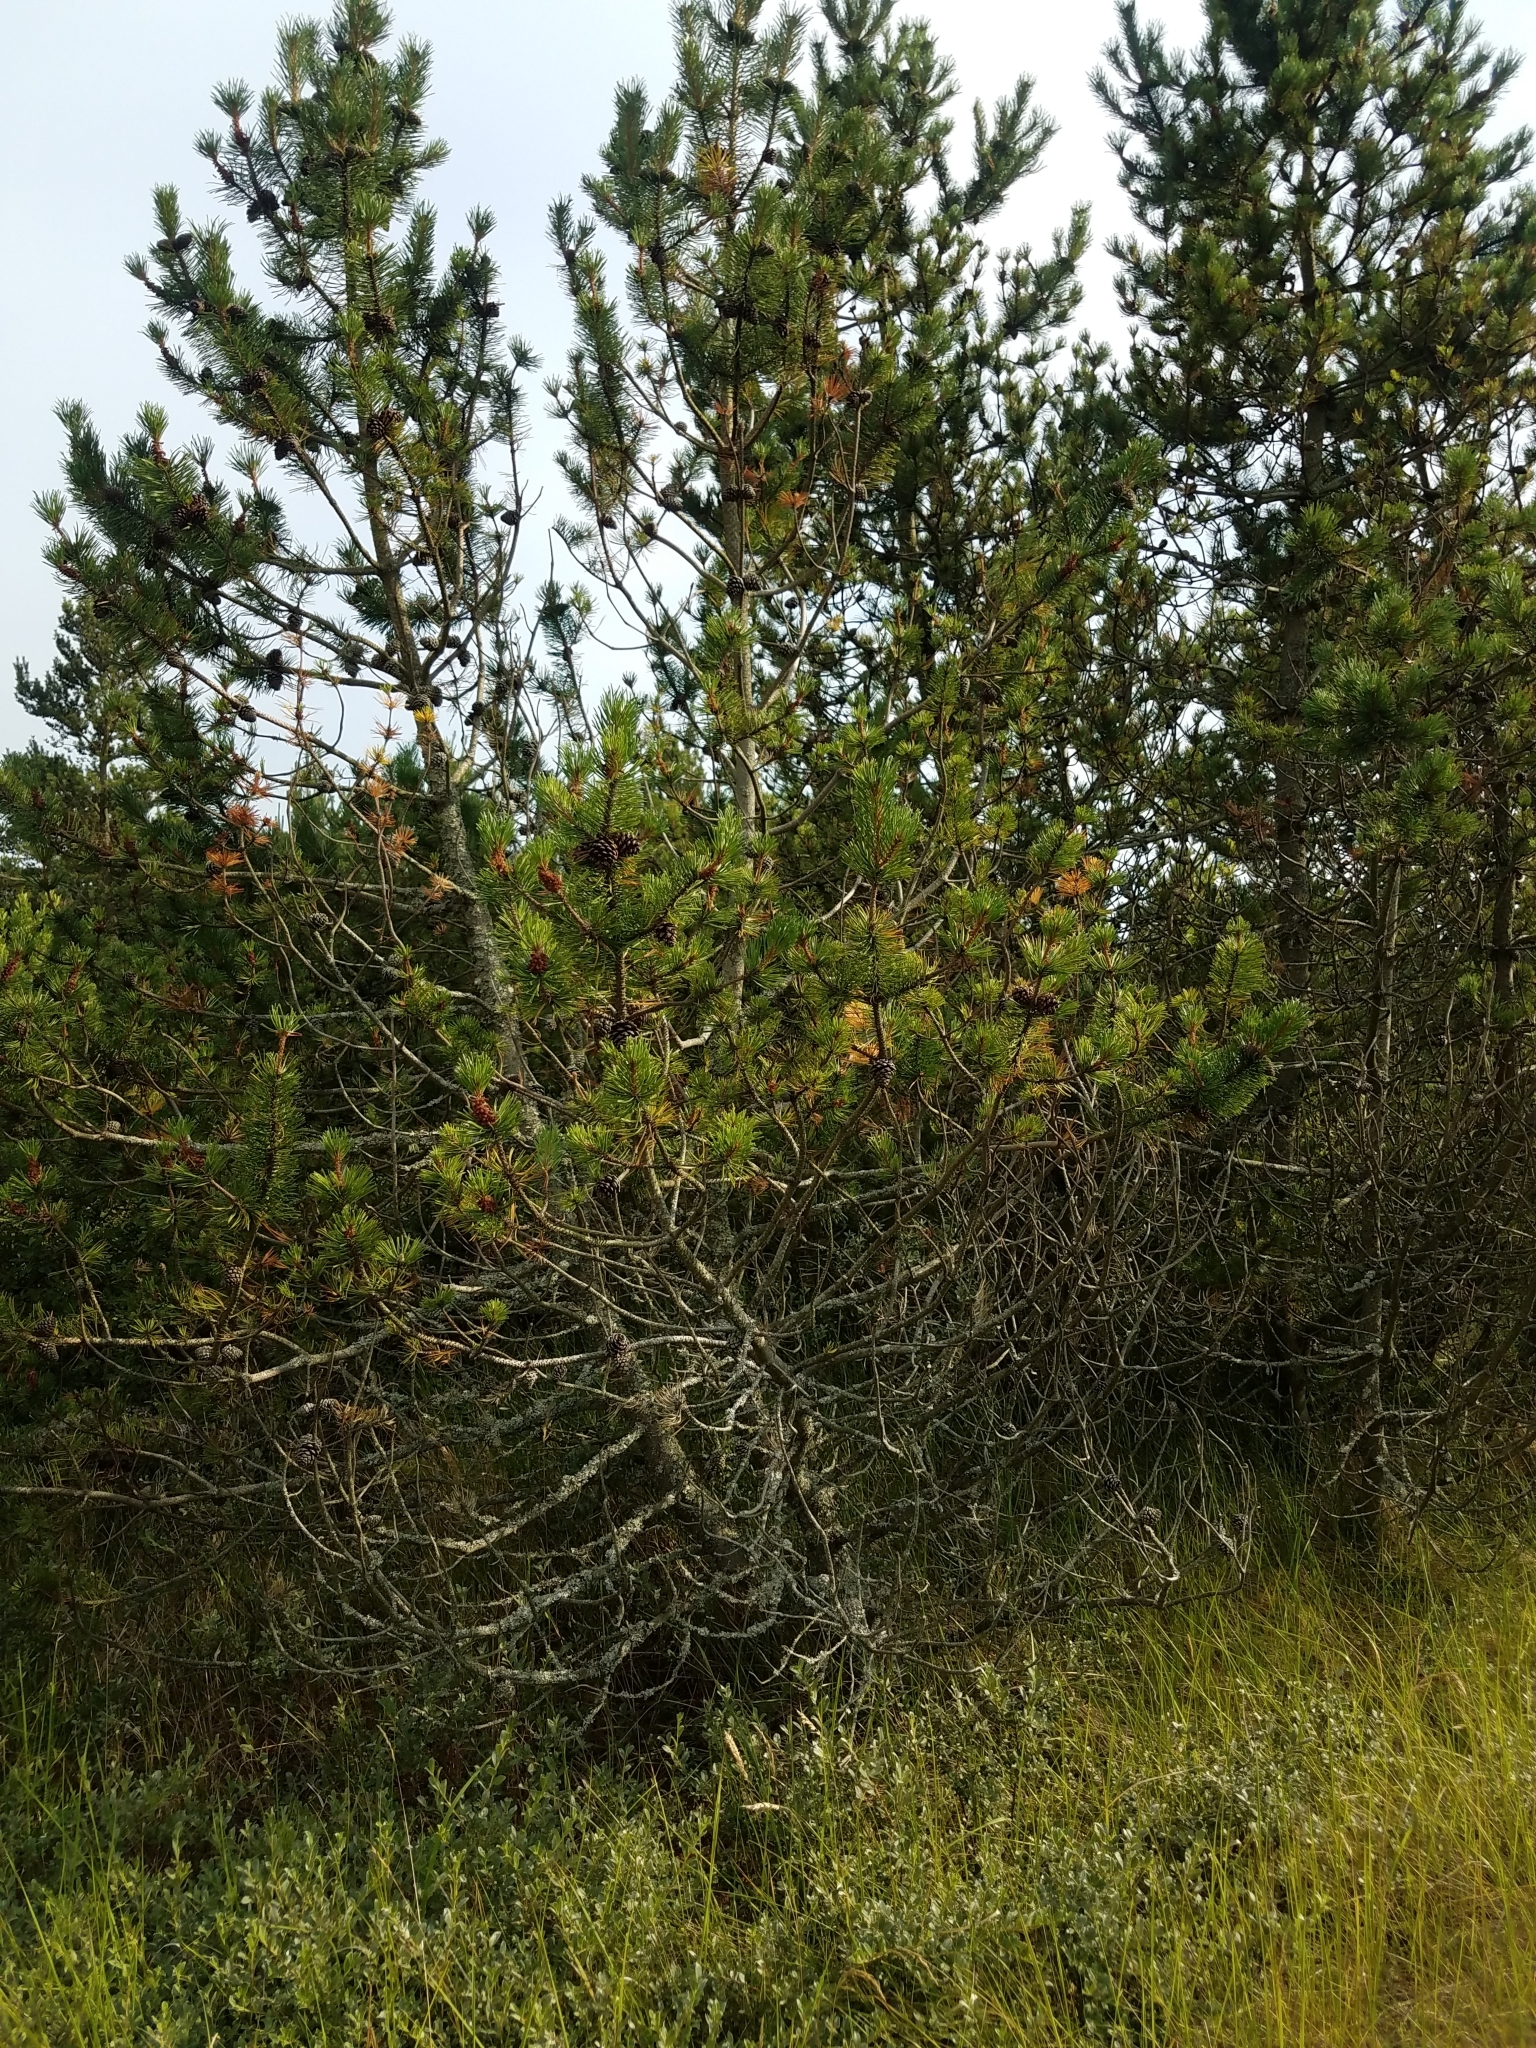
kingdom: Plantae
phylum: Tracheophyta
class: Pinopsida
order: Pinales
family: Pinaceae
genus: Pinus
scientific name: Pinus mugo
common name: Mugo pine
